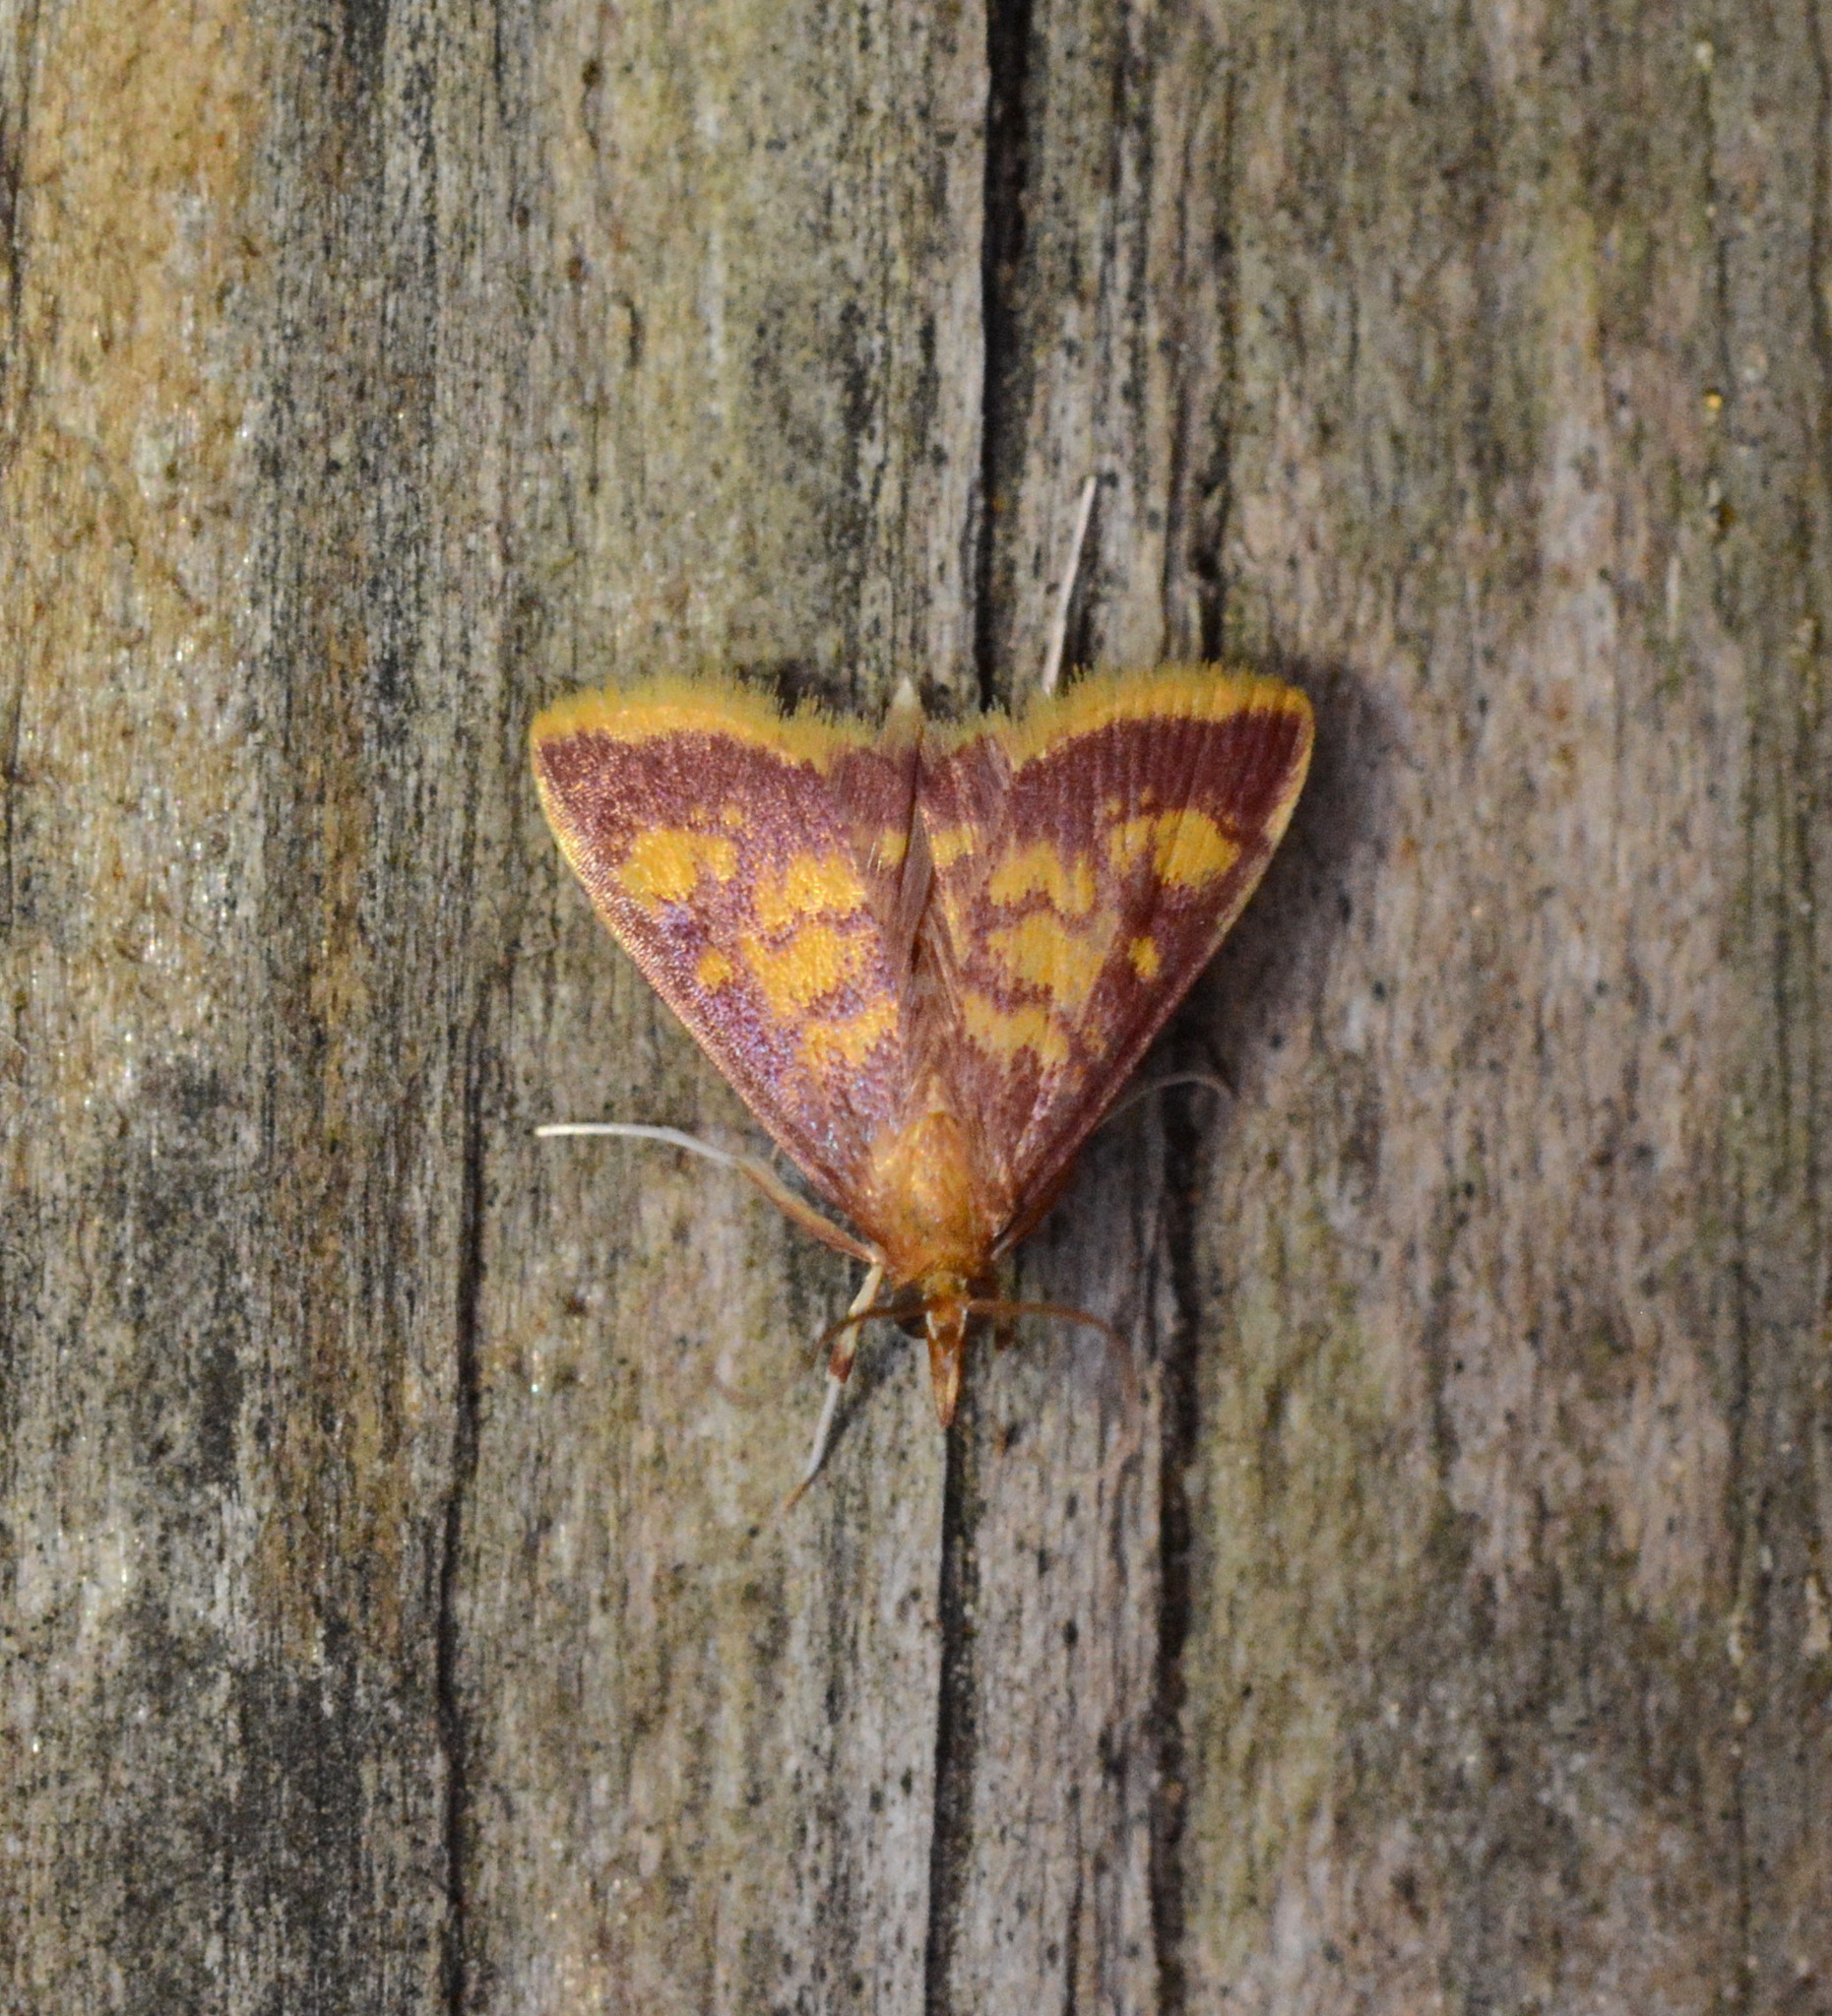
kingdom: Animalia
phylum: Arthropoda
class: Insecta
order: Lepidoptera
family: Crambidae
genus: Pyrausta
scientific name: Pyrausta acrionalis
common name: Mint-loving pyrausta moth
